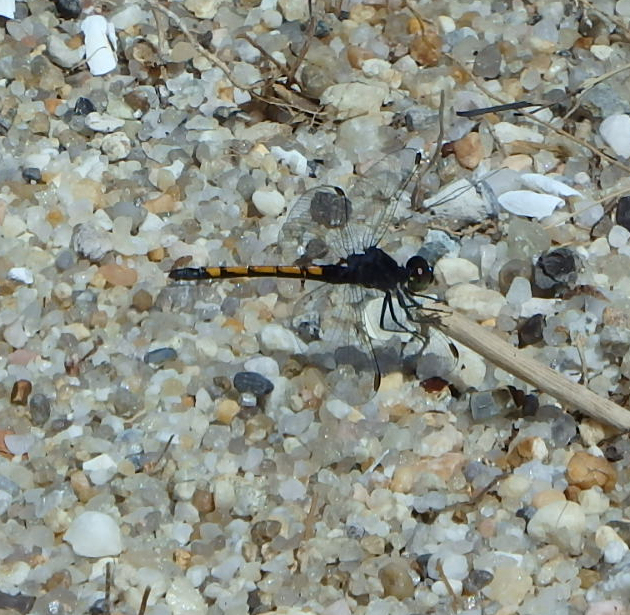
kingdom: Animalia
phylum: Arthropoda
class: Insecta
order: Odonata
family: Libellulidae
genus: Erythrodiplax
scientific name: Erythrodiplax berenice
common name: Seaside dragonlet
